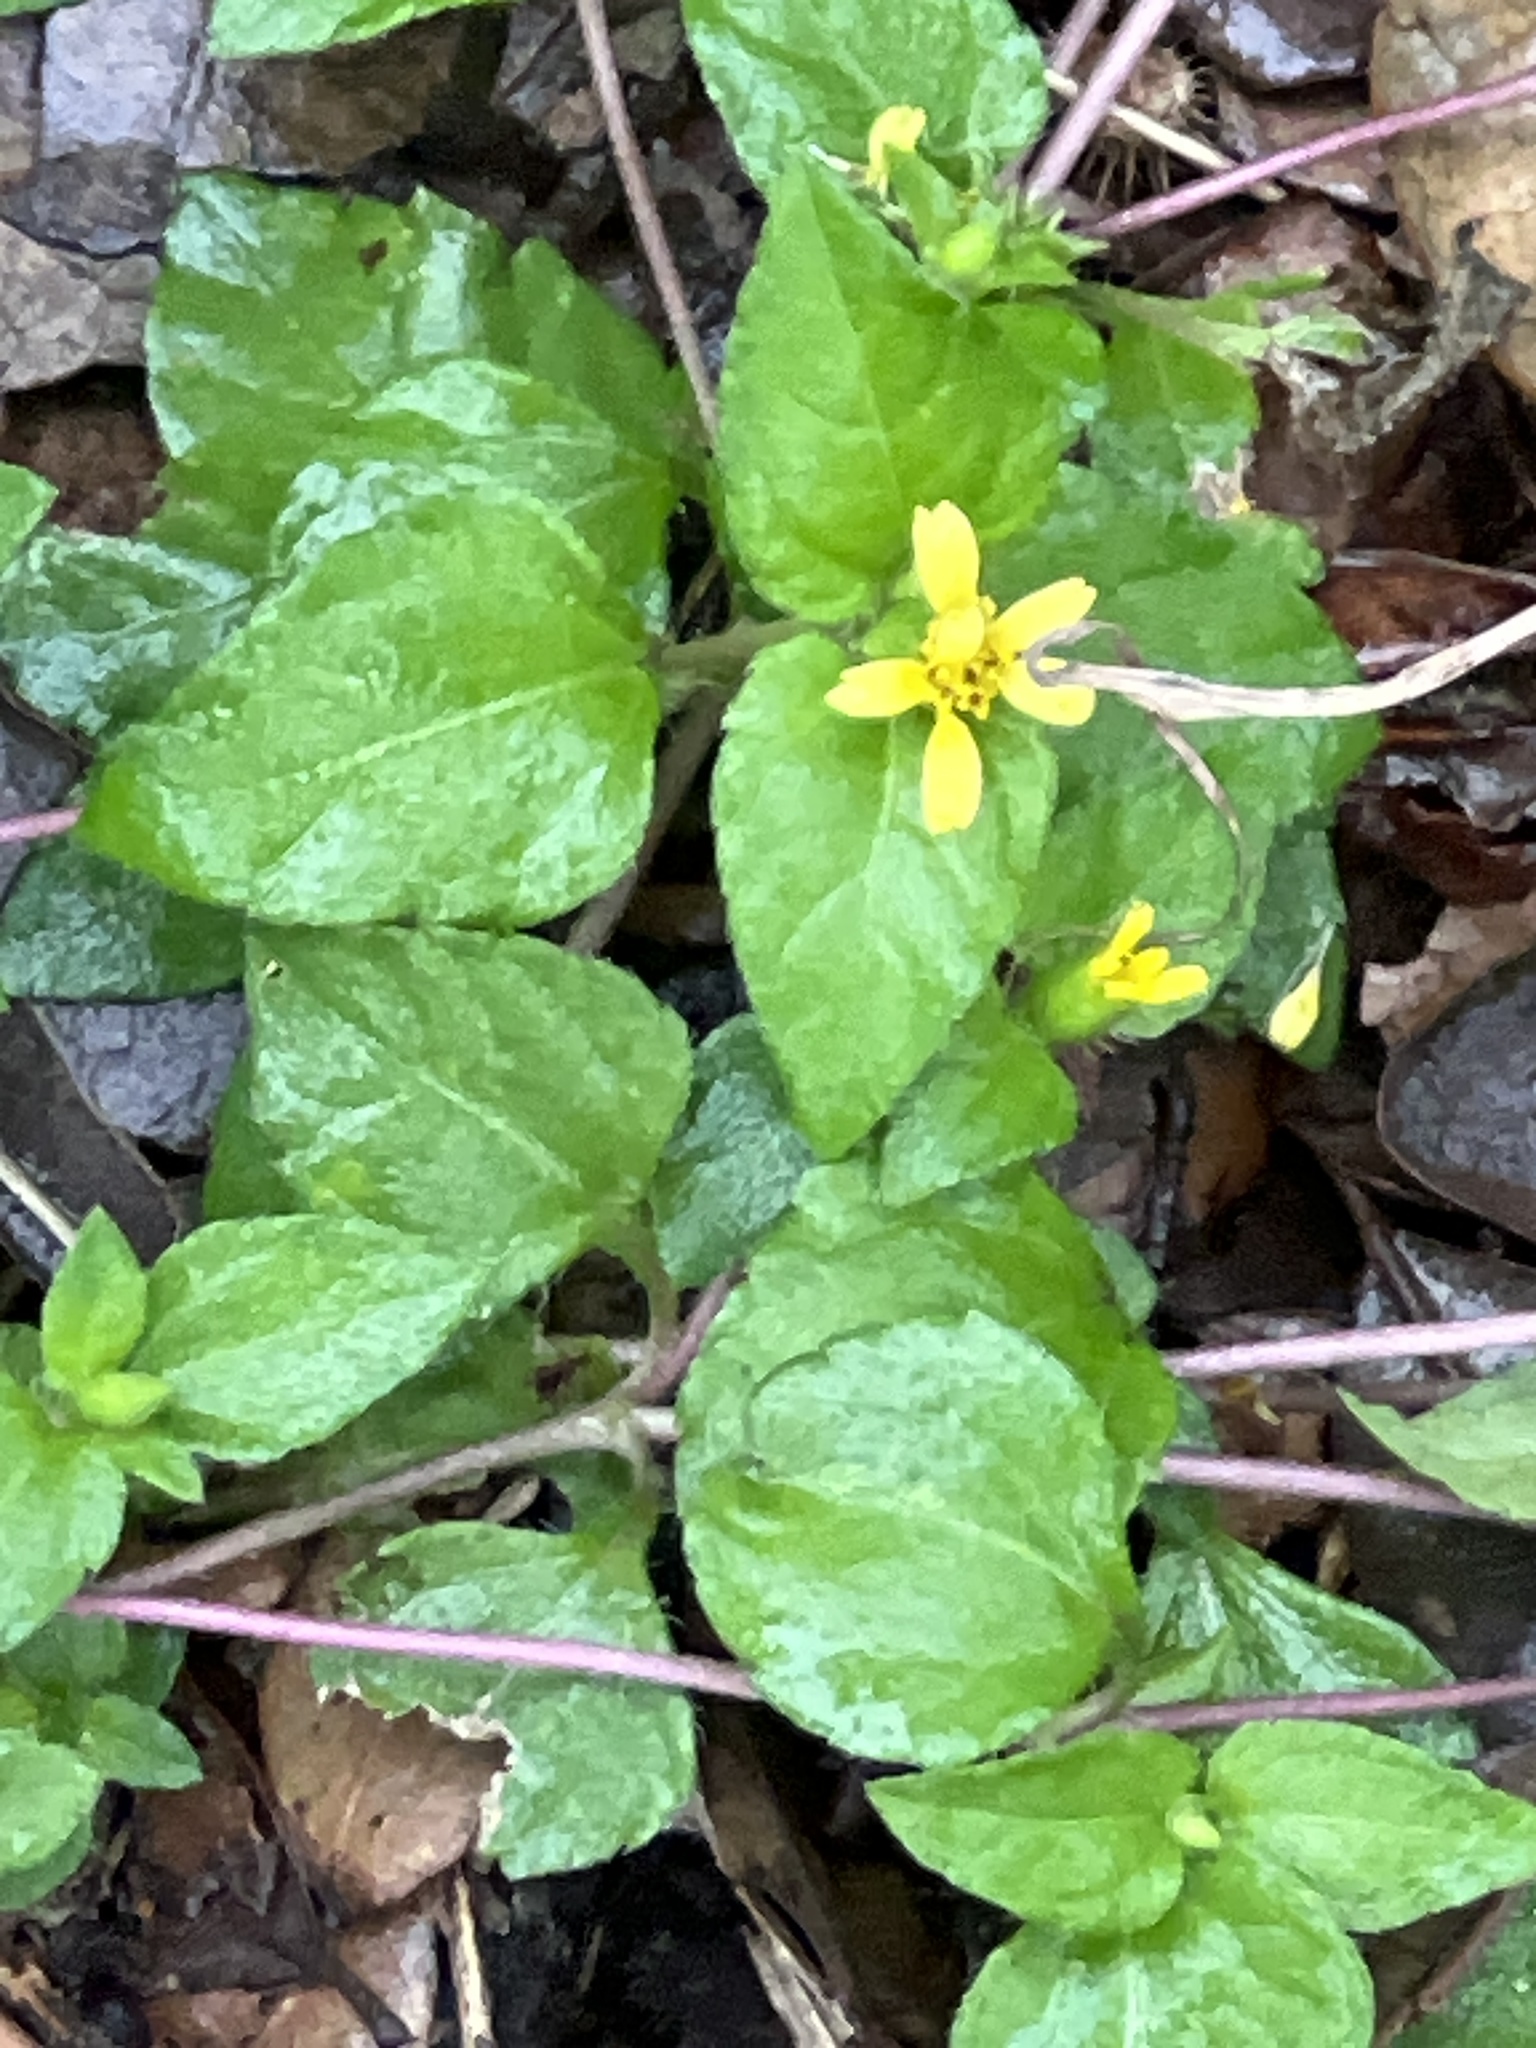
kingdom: Plantae
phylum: Tracheophyta
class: Magnoliopsida
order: Asterales
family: Asteraceae
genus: Calyptocarpus
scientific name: Calyptocarpus vialis
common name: Straggler daisy
